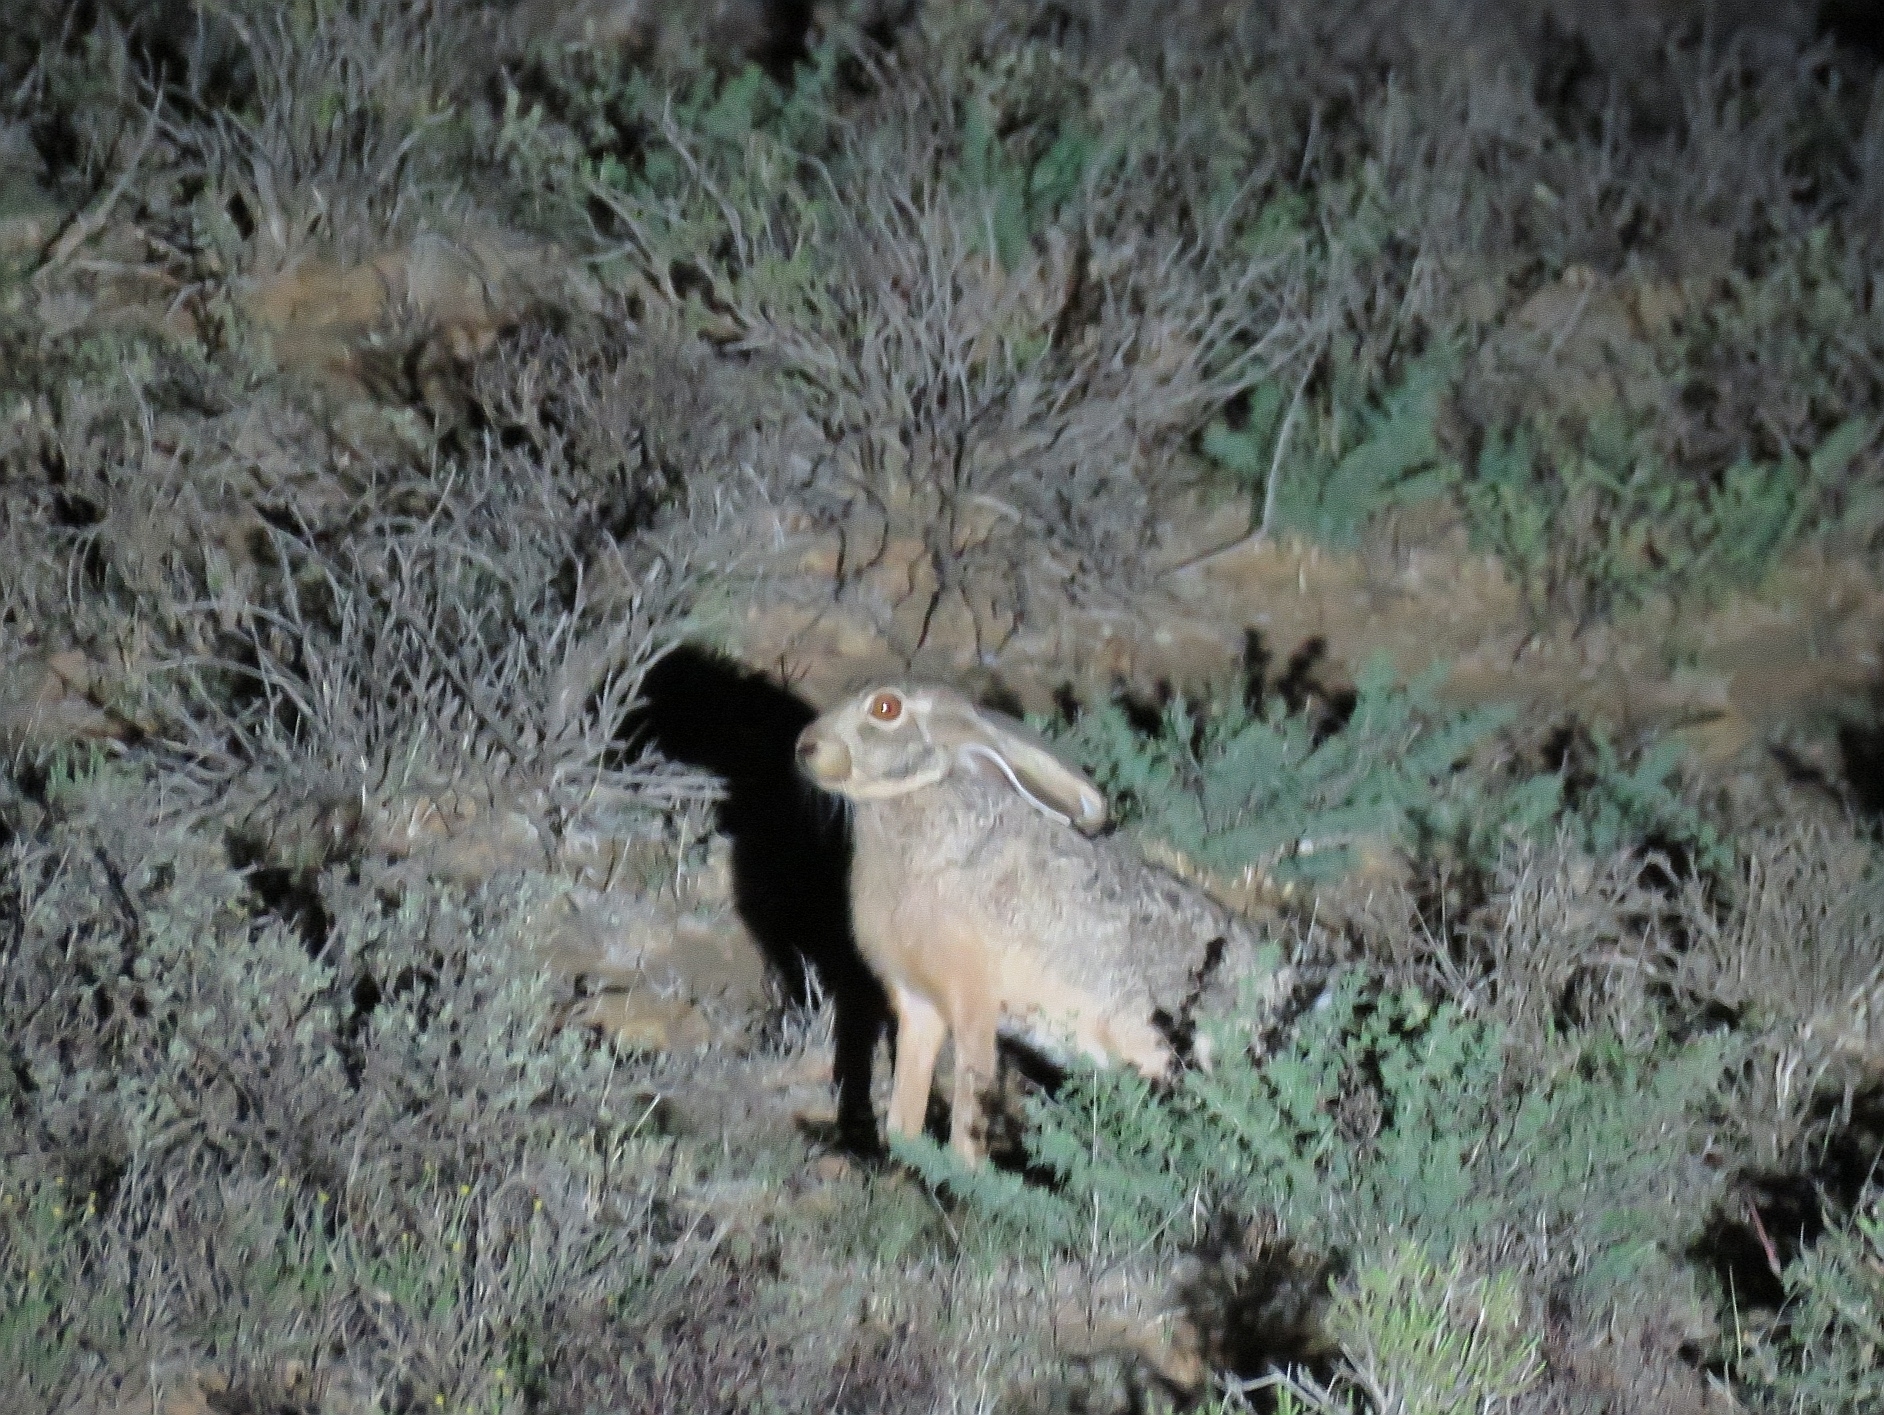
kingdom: Animalia
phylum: Chordata
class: Mammalia
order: Lagomorpha
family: Leporidae
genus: Lepus
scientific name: Lepus capensis
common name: Cape hare
